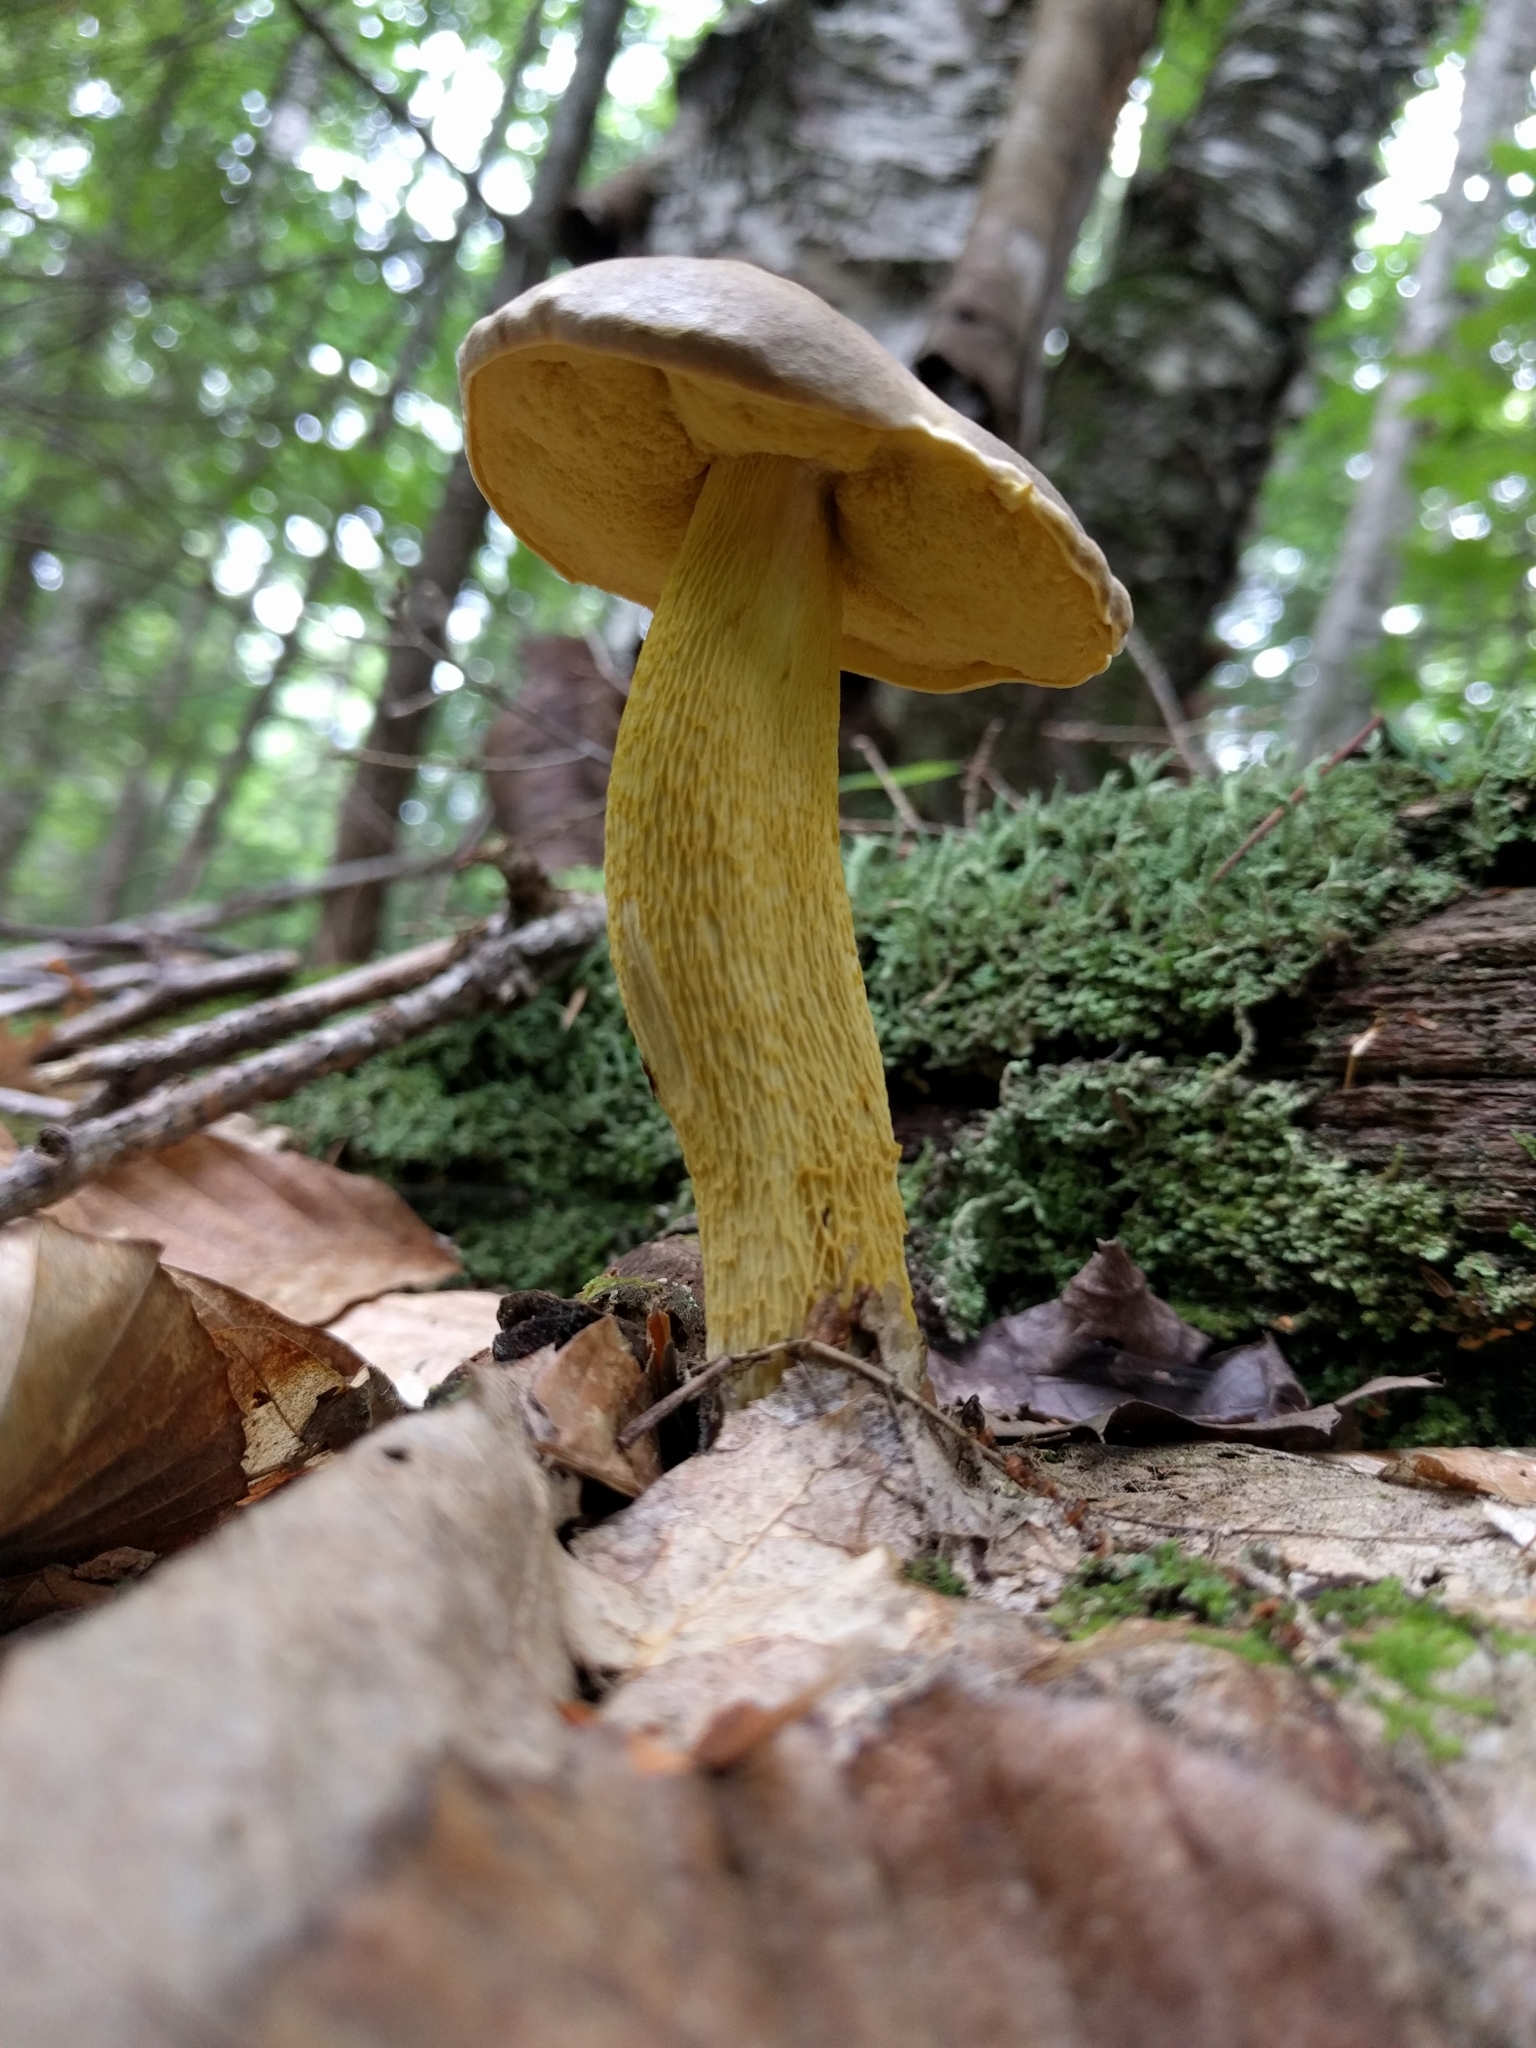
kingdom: Fungi
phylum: Basidiomycota
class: Agaricomycetes
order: Boletales
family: Boletaceae
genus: Retiboletus
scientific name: Retiboletus ornatipes
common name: Ornate-stalked bolete
